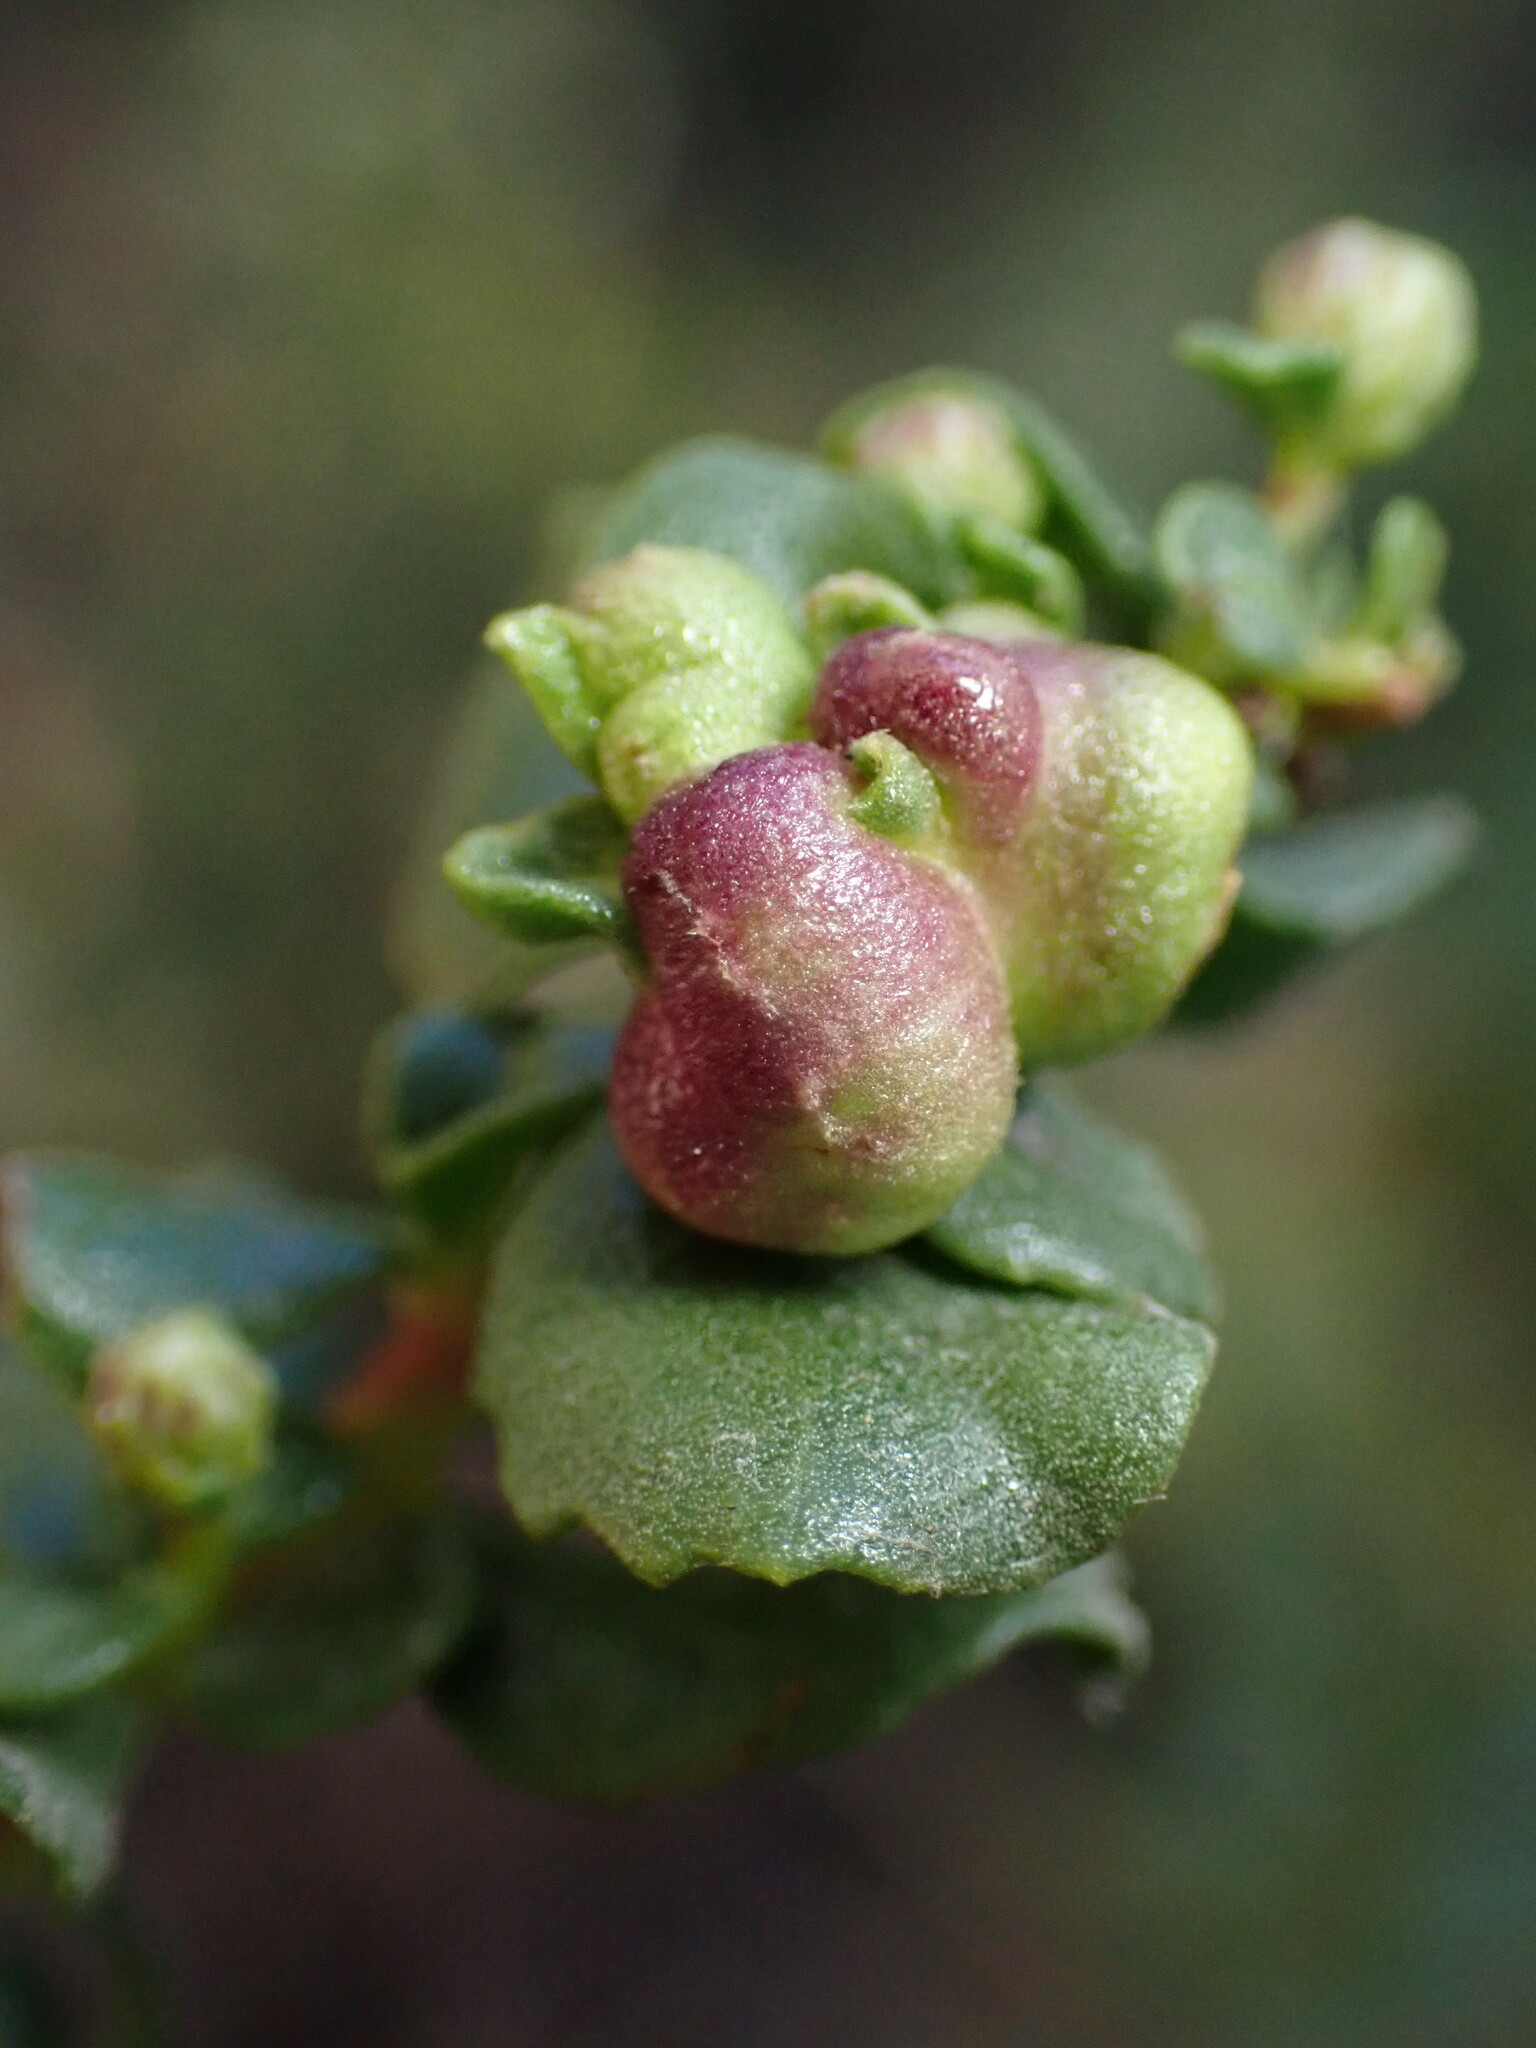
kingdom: Animalia
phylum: Arthropoda
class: Insecta
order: Diptera
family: Cecidomyiidae
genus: Rhopalomyia
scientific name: Rhopalomyia californica
